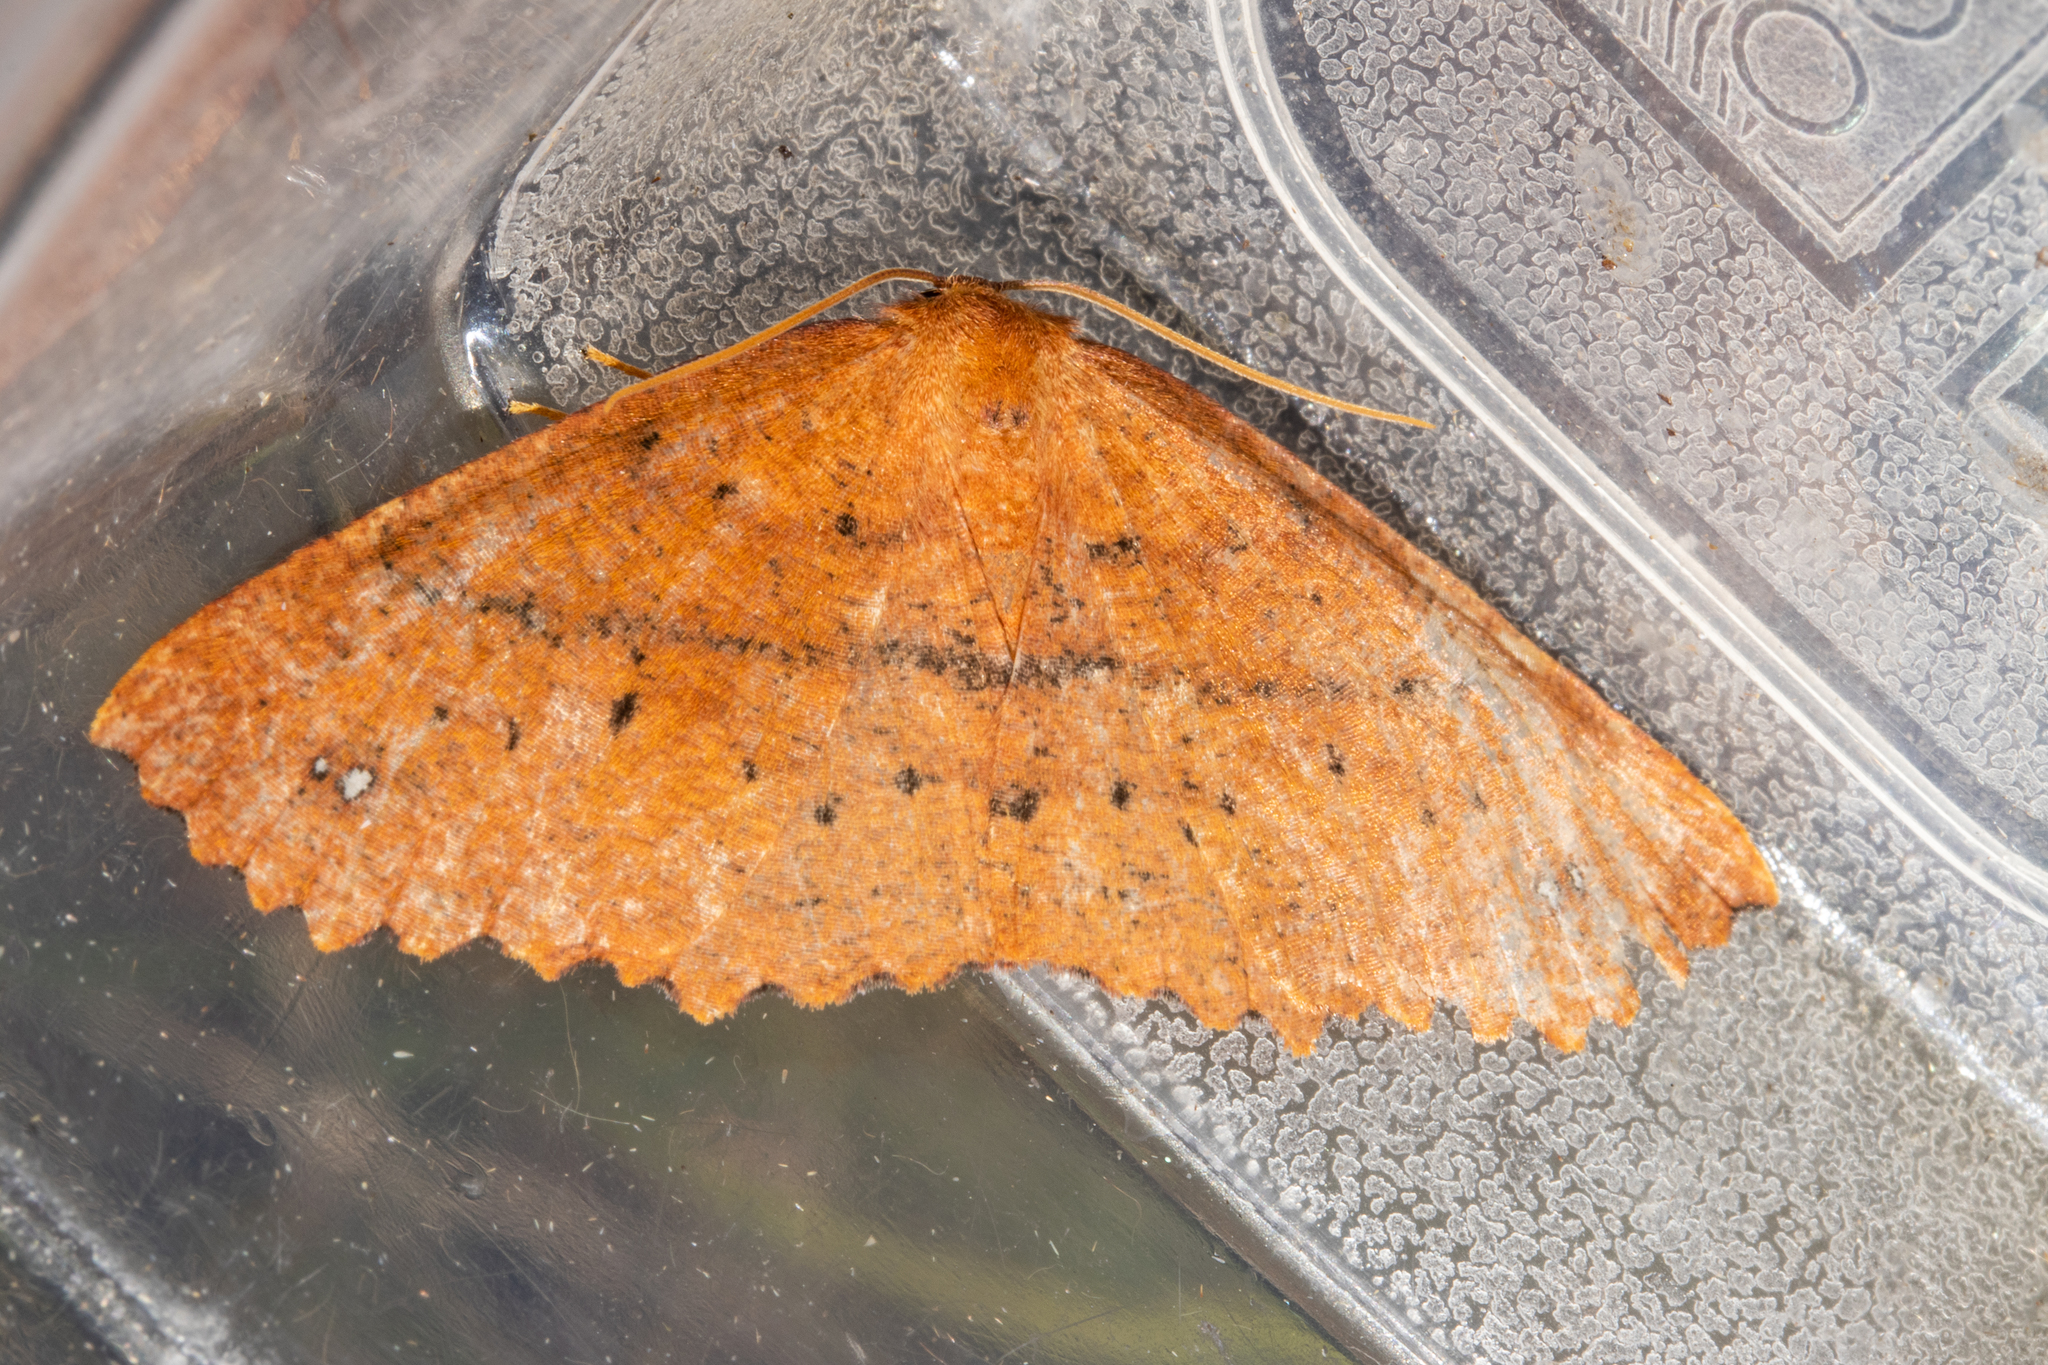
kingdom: Animalia
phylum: Arthropoda
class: Insecta
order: Lepidoptera
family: Geometridae
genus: Xyridacma
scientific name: Xyridacma alectoraria
